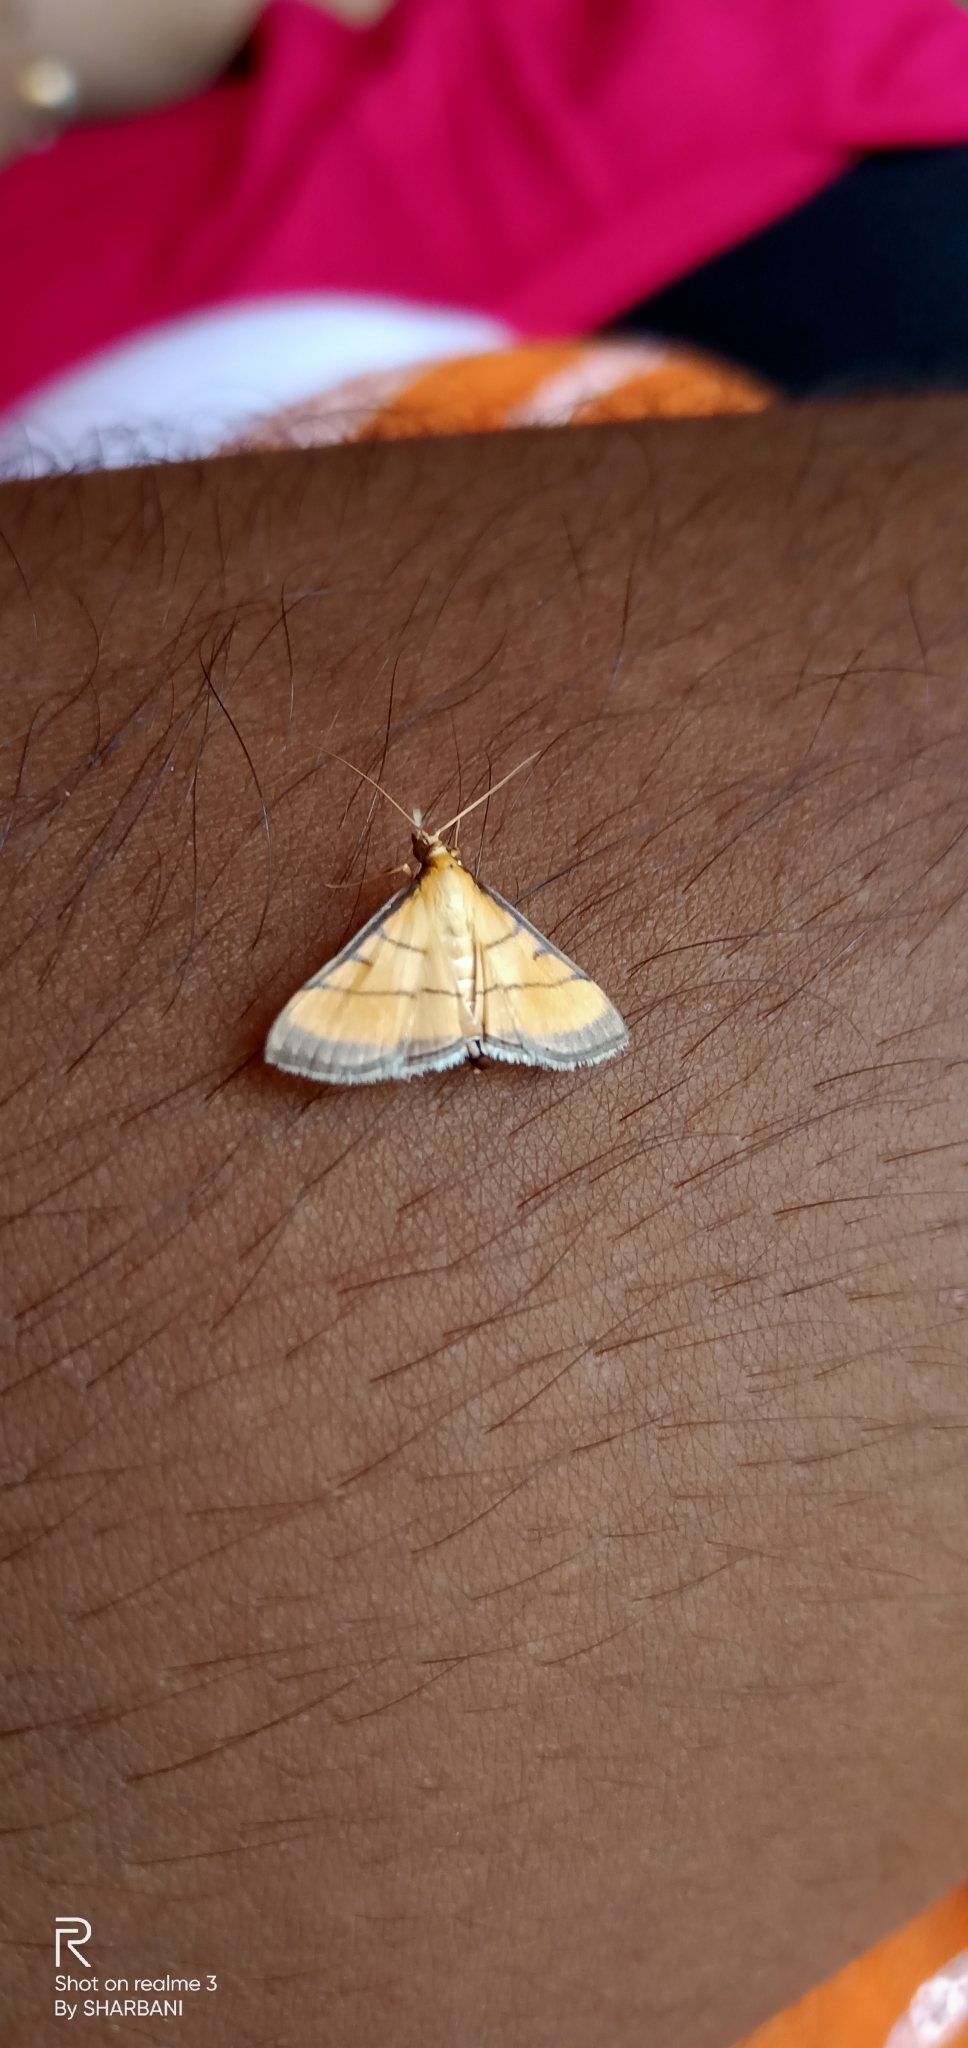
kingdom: Animalia
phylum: Arthropoda
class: Insecta
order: Lepidoptera
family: Crambidae
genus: Cnaphalocrocis
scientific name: Cnaphalocrocis medinalis
